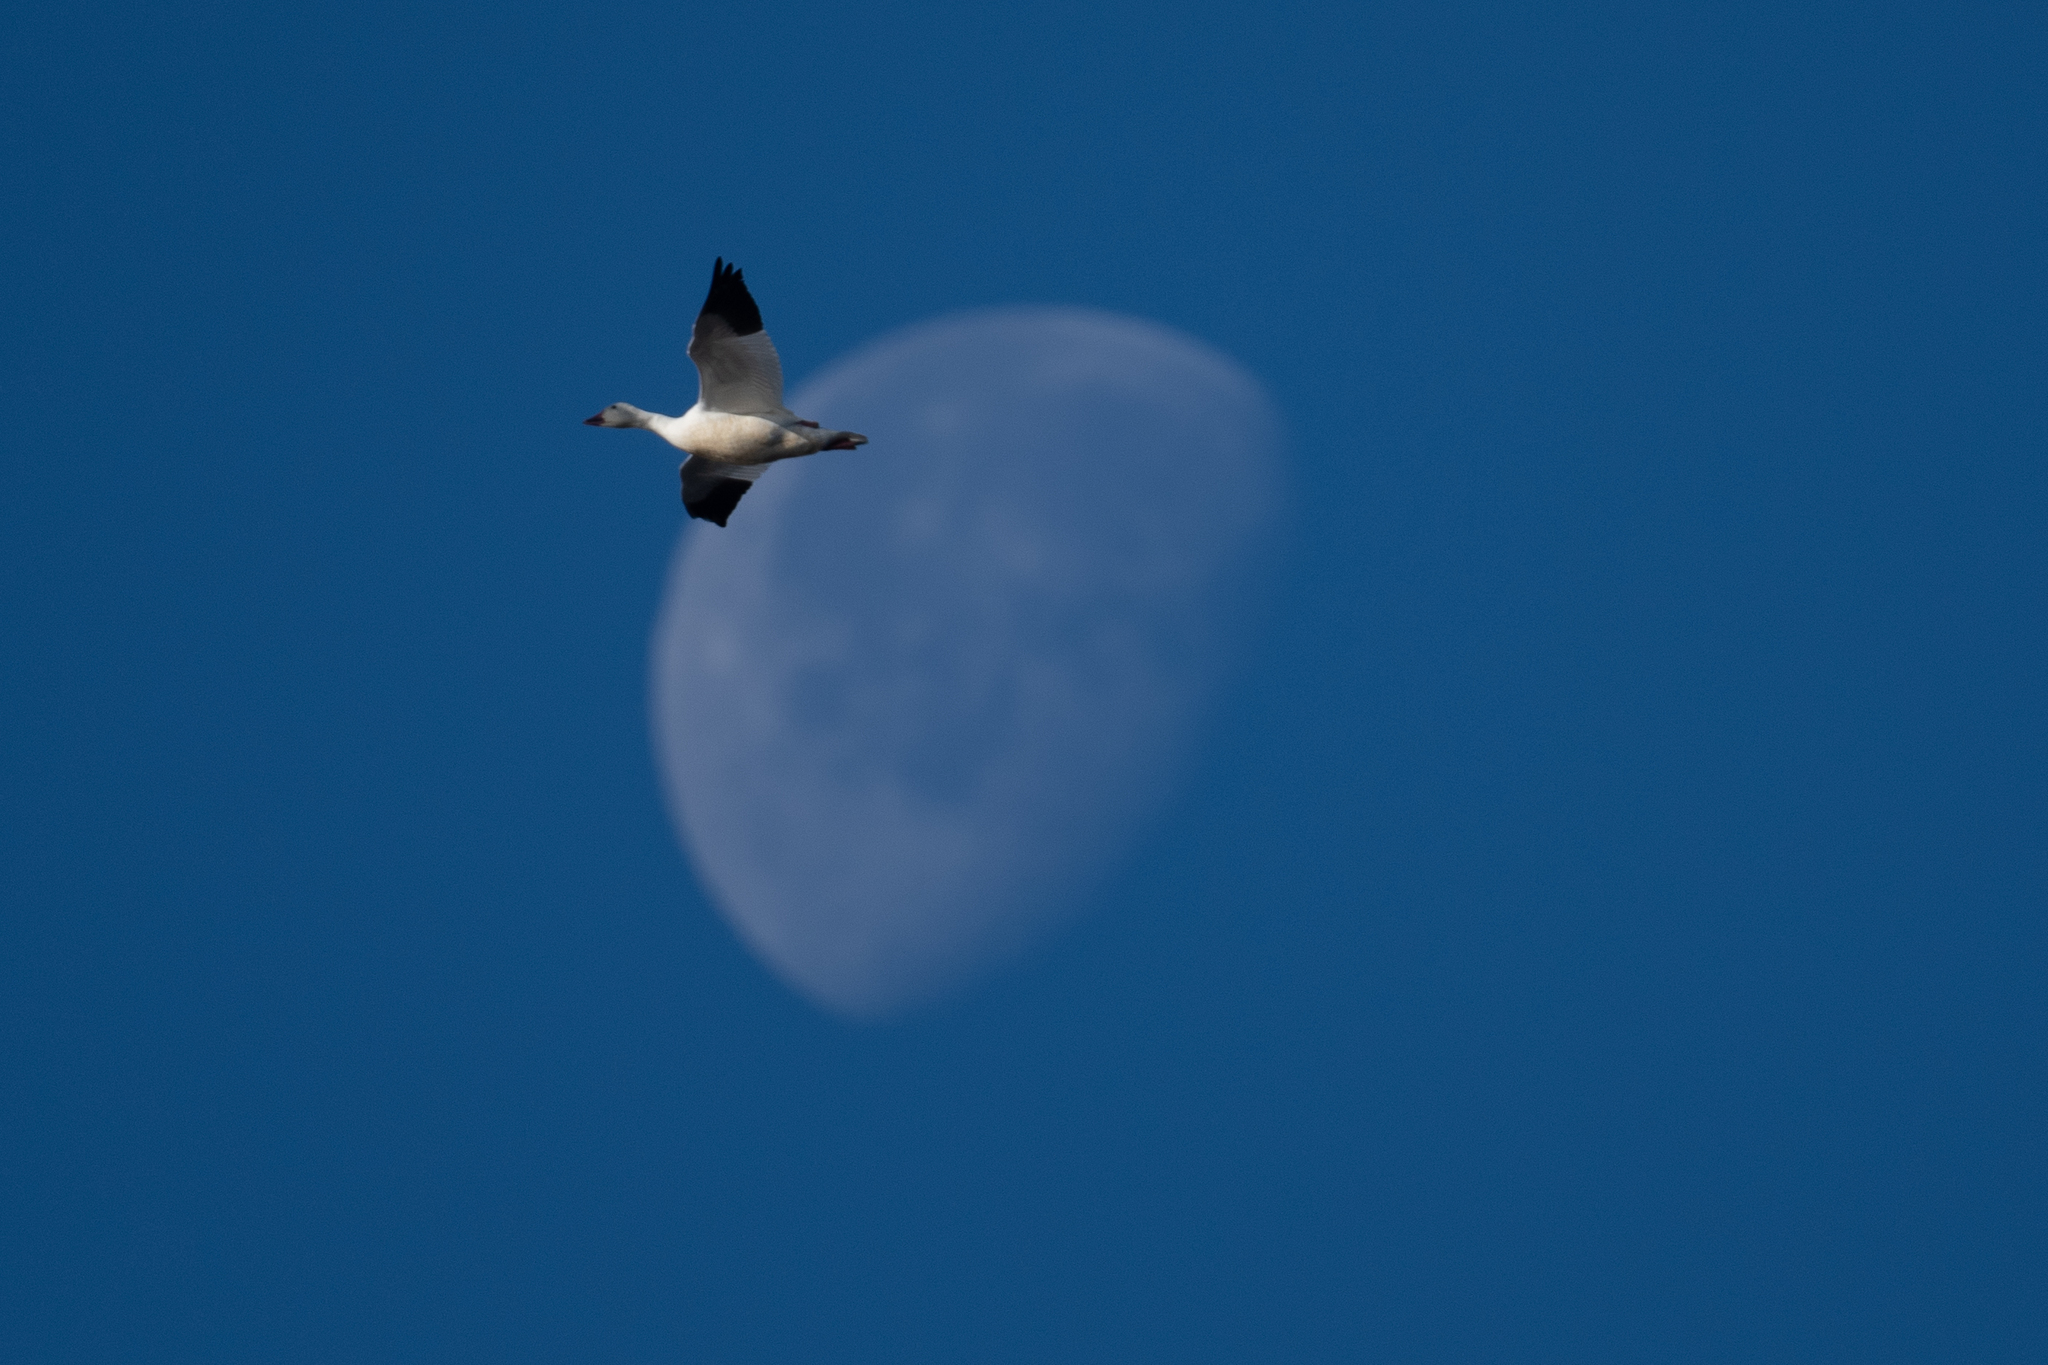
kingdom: Animalia
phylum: Chordata
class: Aves
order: Anseriformes
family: Anatidae
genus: Anser
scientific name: Anser caerulescens
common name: Snow goose
